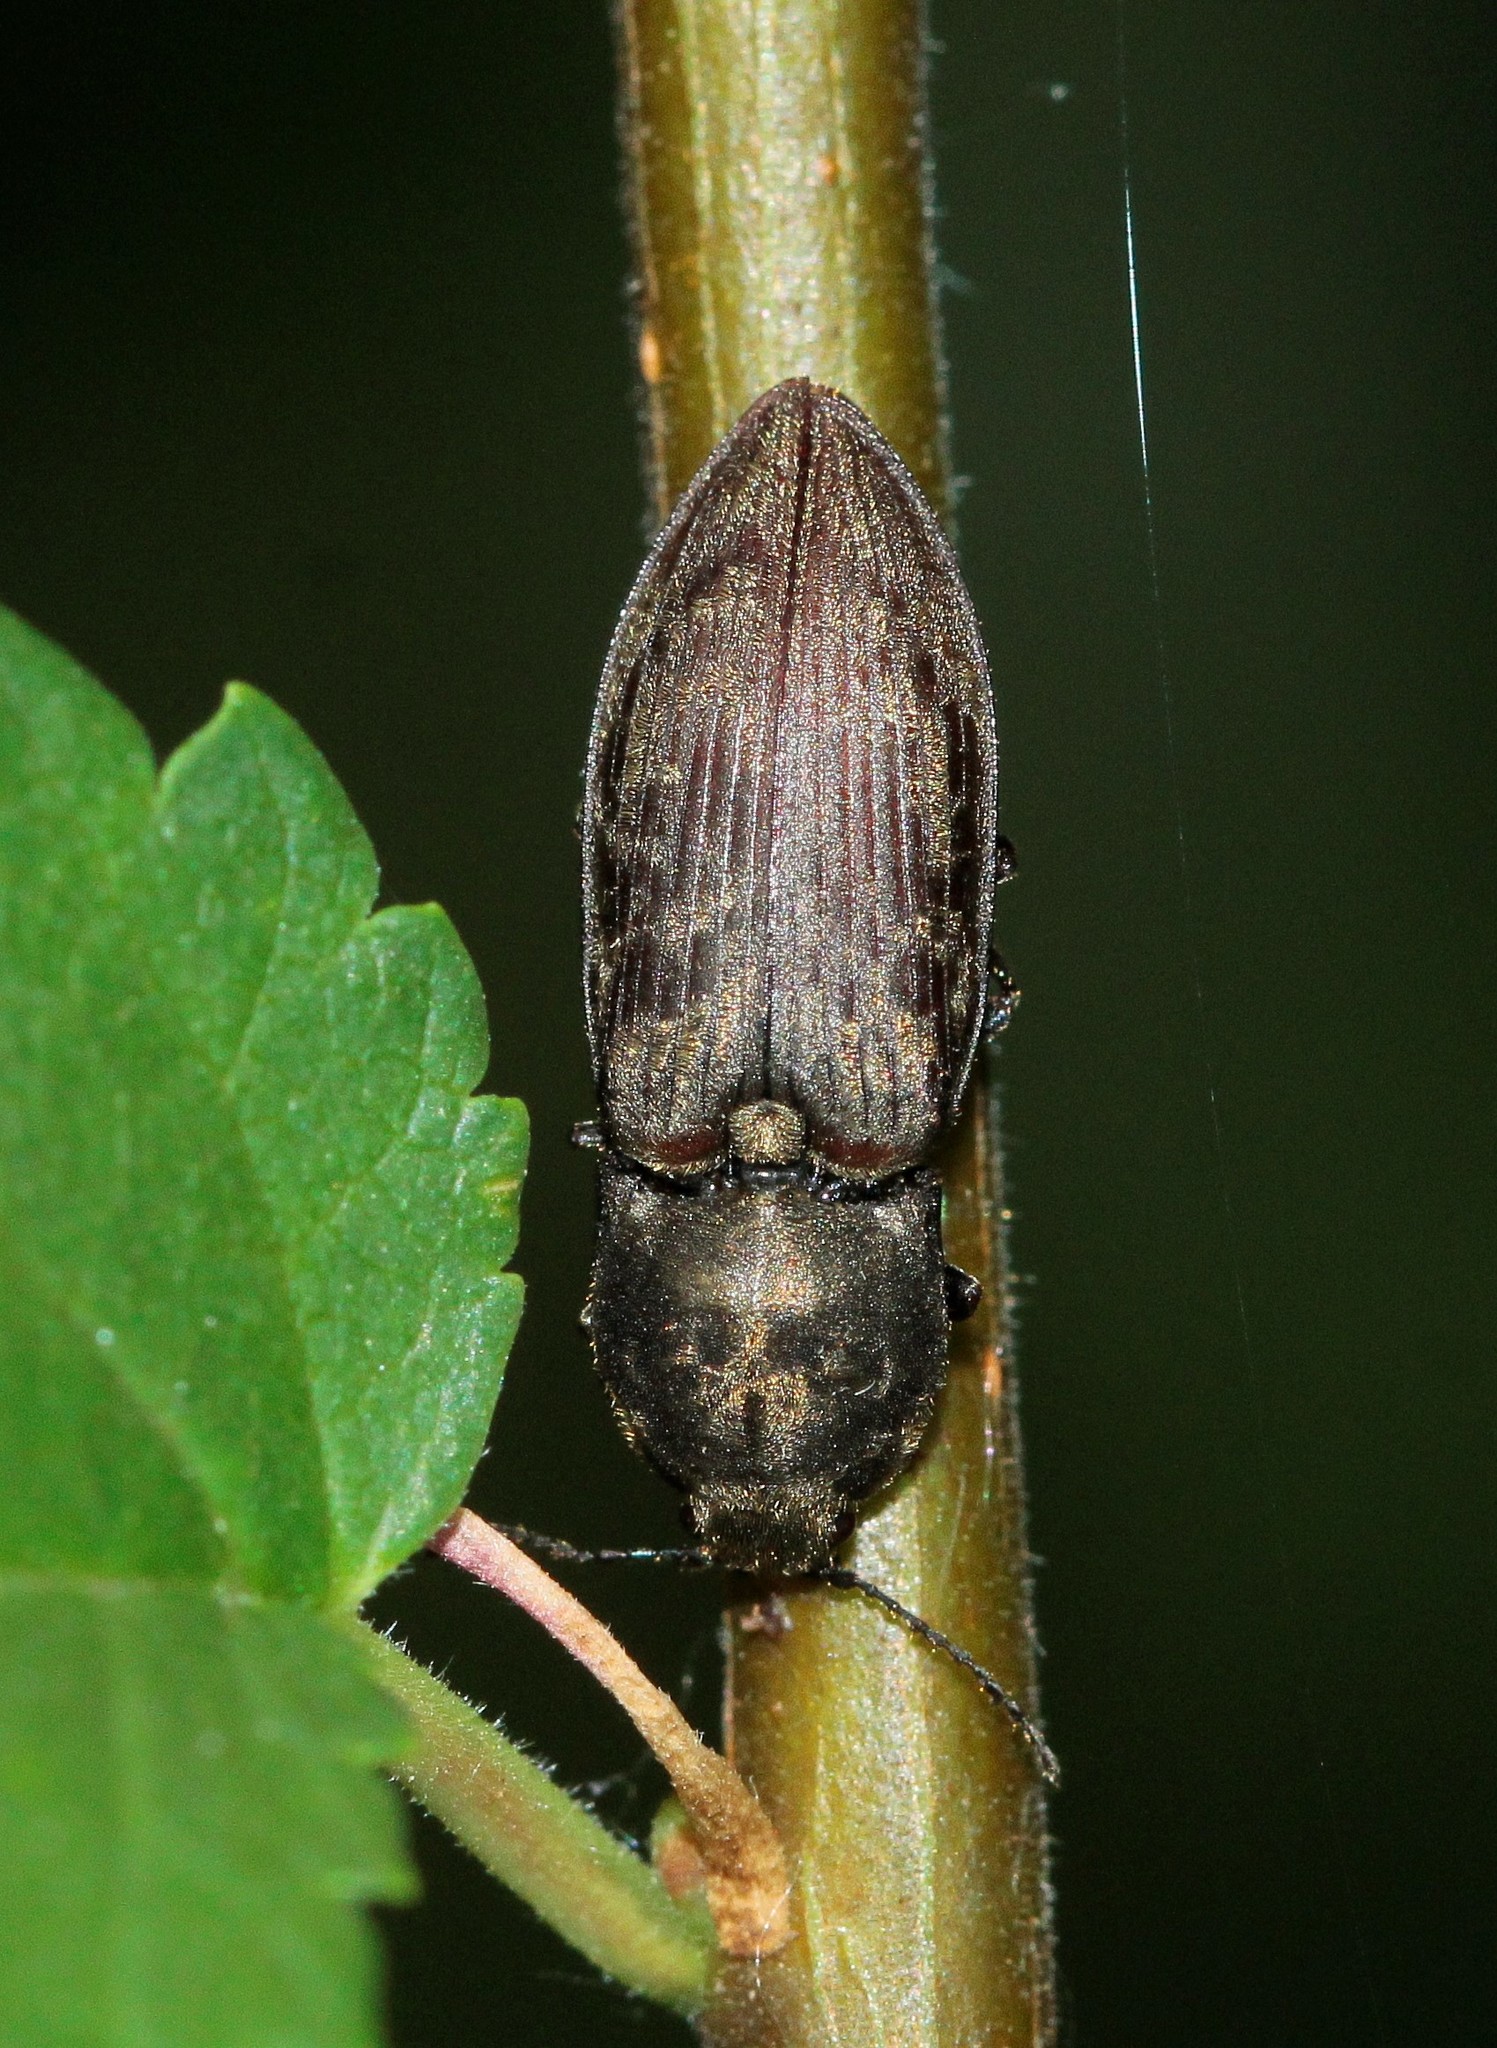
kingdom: Animalia
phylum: Arthropoda
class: Insecta
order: Coleoptera
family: Elateridae
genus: Prosternon
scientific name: Prosternon tessellatum
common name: Chequered click beetle
